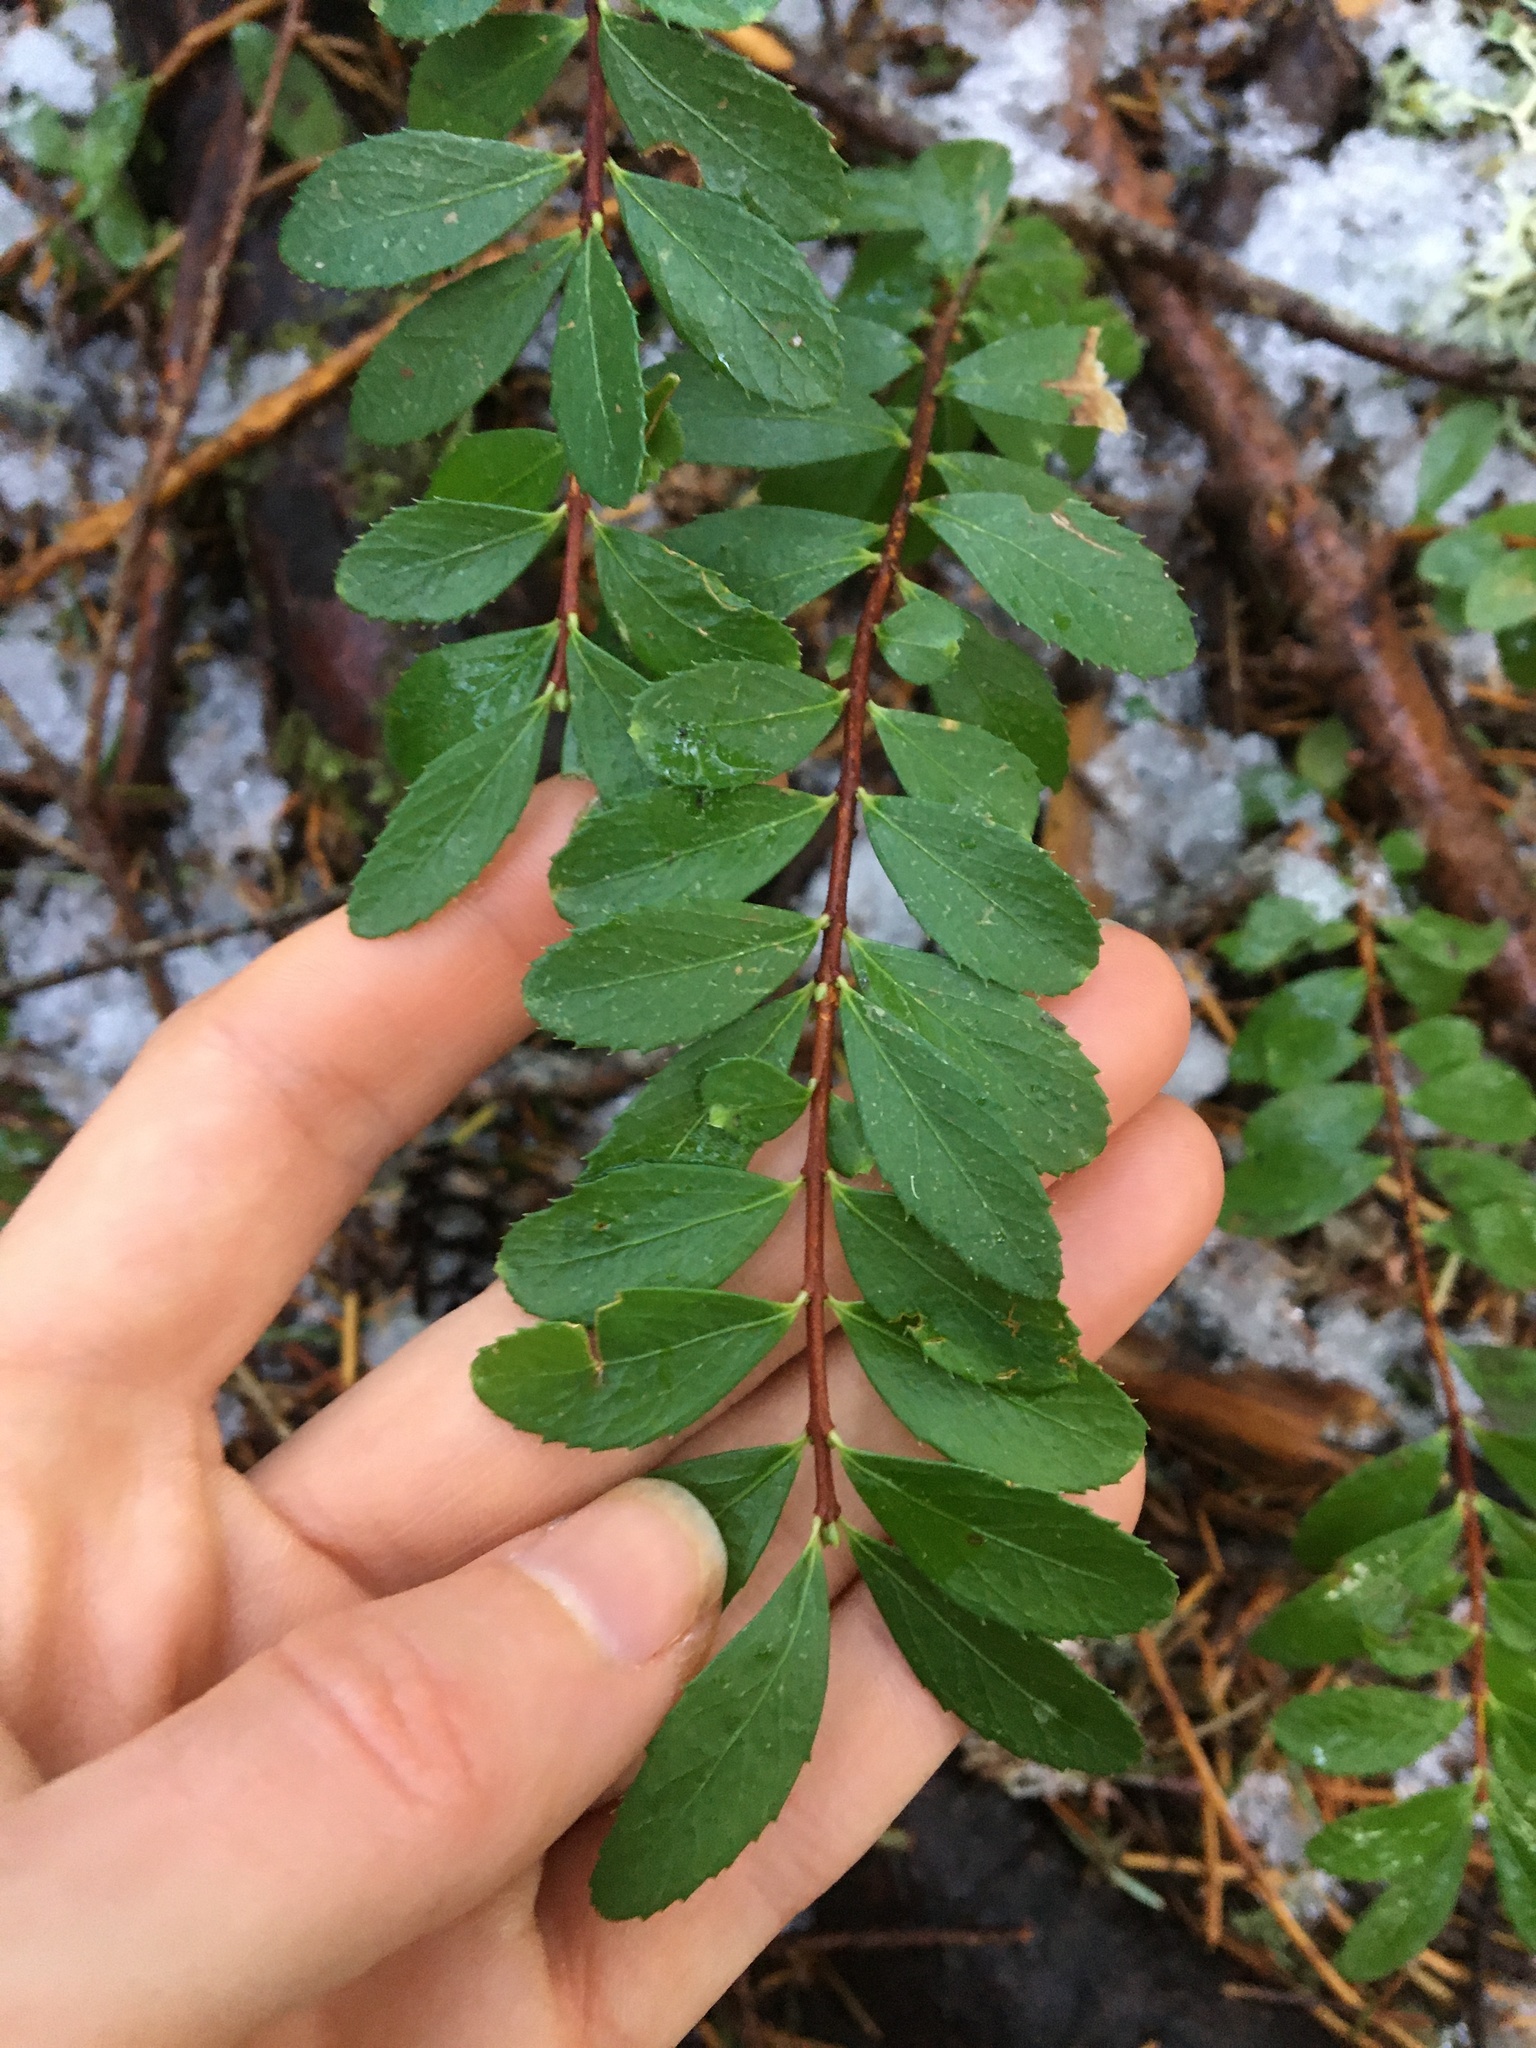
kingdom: Plantae
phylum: Tracheophyta
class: Magnoliopsida
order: Celastrales
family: Celastraceae
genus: Paxistima
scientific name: Paxistima myrsinites
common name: Mountain-lover
